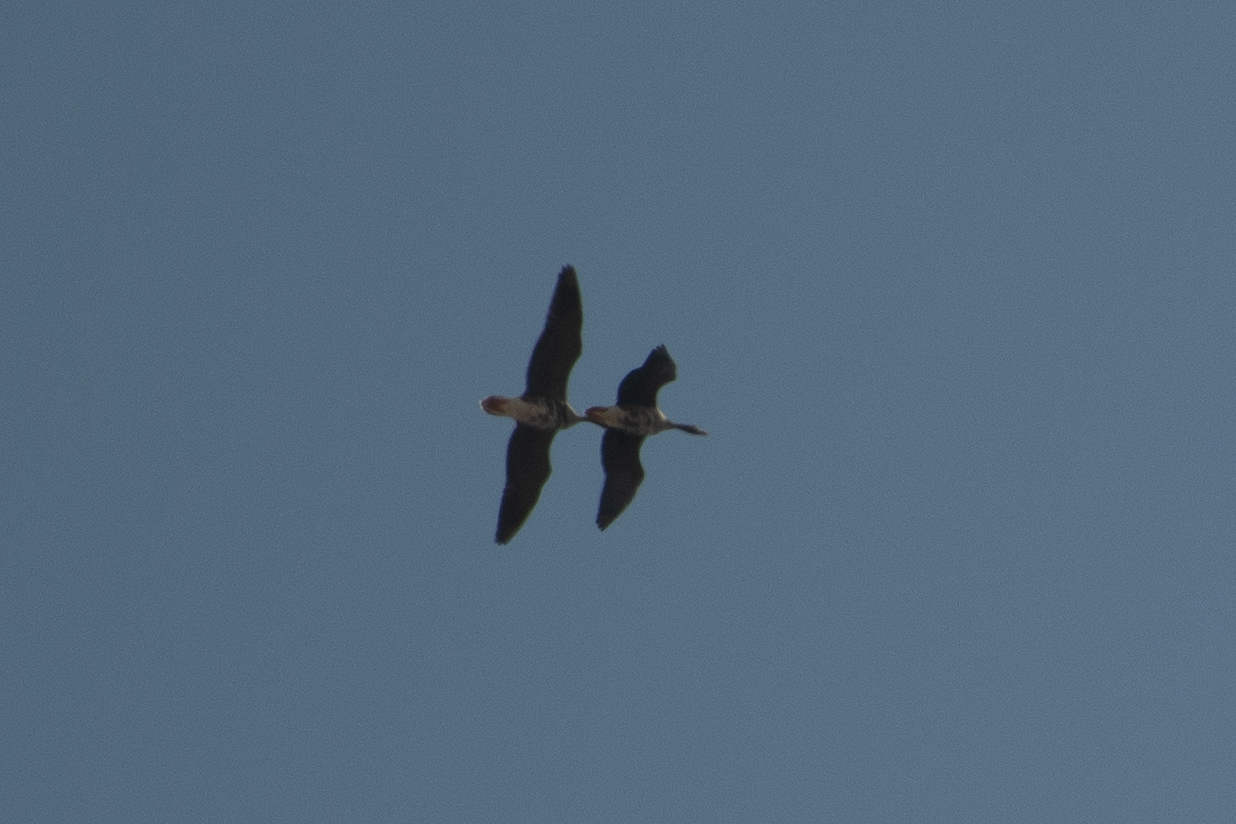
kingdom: Animalia
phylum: Chordata
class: Aves
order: Anseriformes
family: Anatidae
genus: Anser
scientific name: Anser albifrons
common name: Greater white-fronted goose
